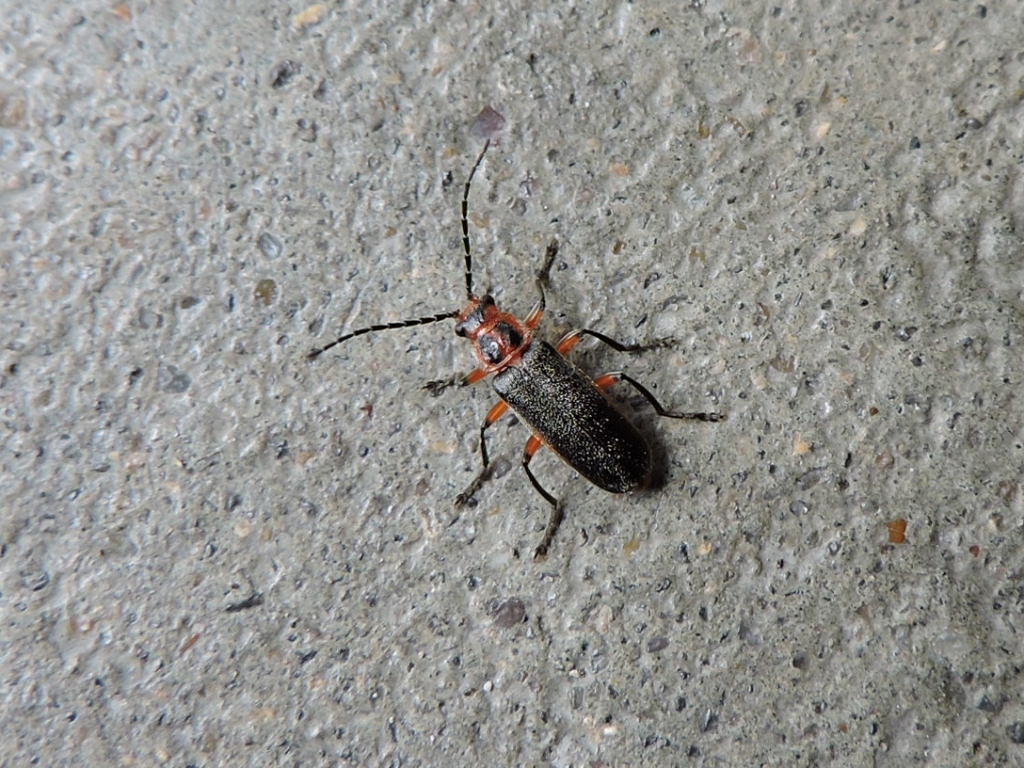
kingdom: Animalia
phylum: Arthropoda
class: Insecta
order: Coleoptera
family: Cantharidae
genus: Atalantycha
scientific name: Atalantycha bilineata
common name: Two-lined leatherwing
